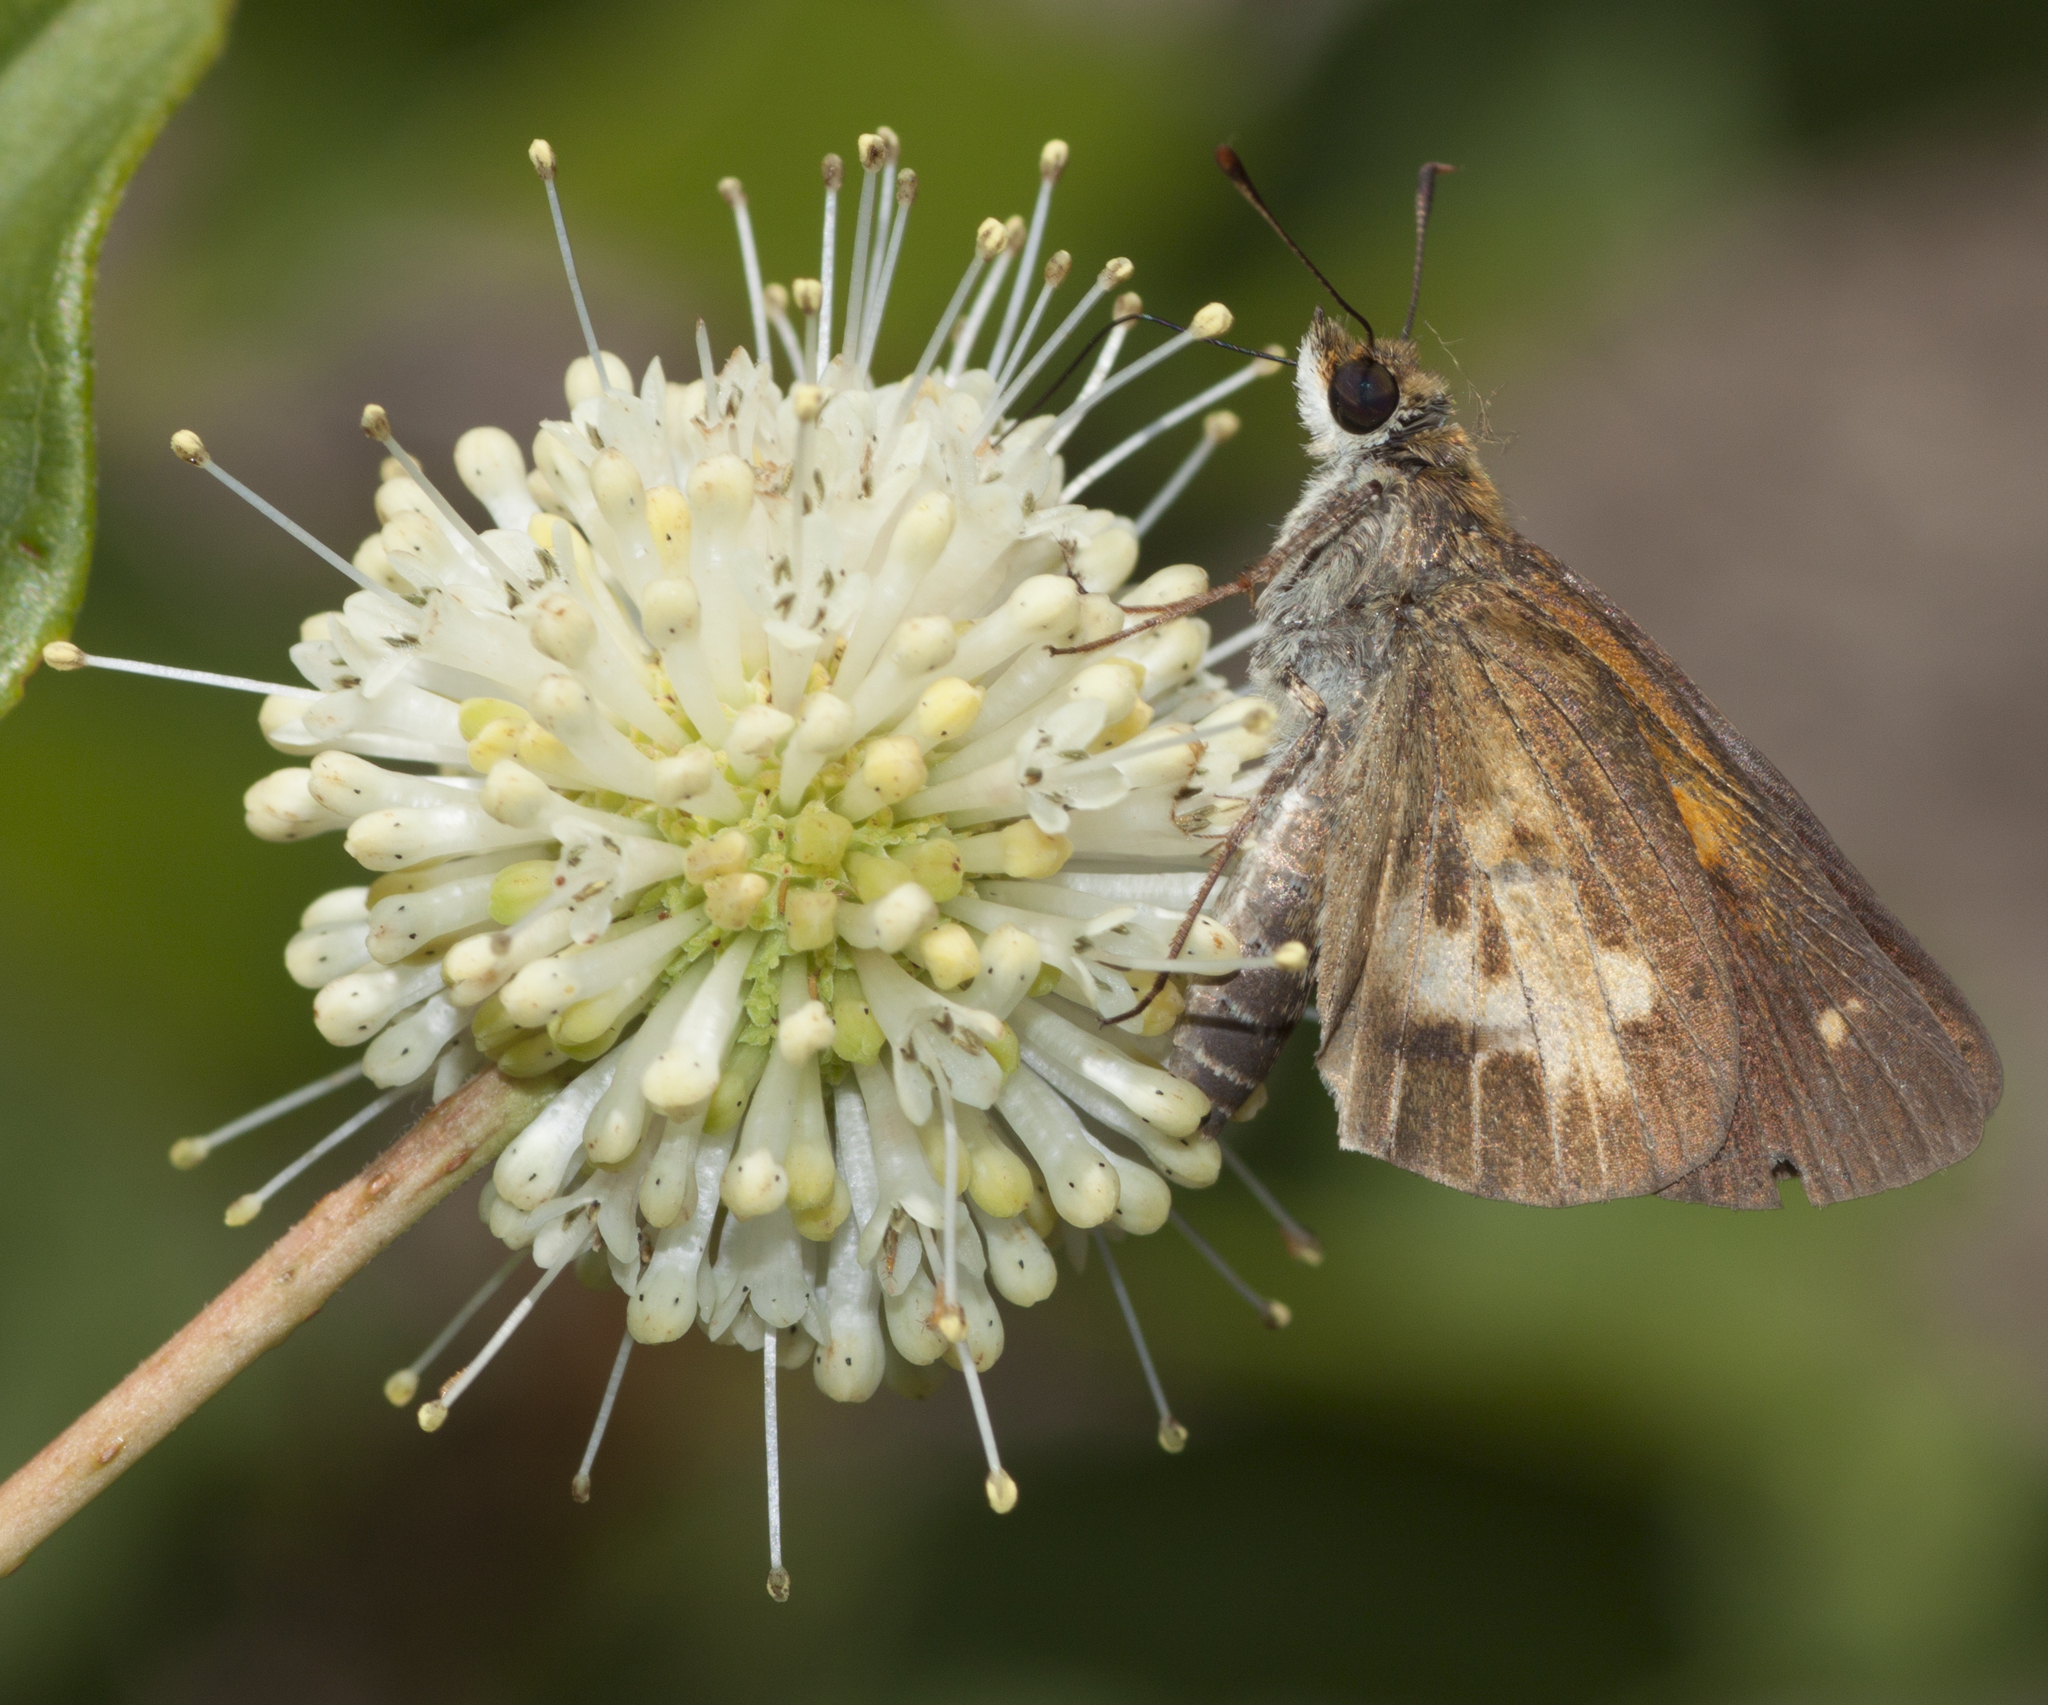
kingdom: Animalia
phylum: Arthropoda
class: Insecta
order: Lepidoptera
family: Hesperiidae
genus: Poanes
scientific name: Poanes viator
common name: Broad-winged skipper
